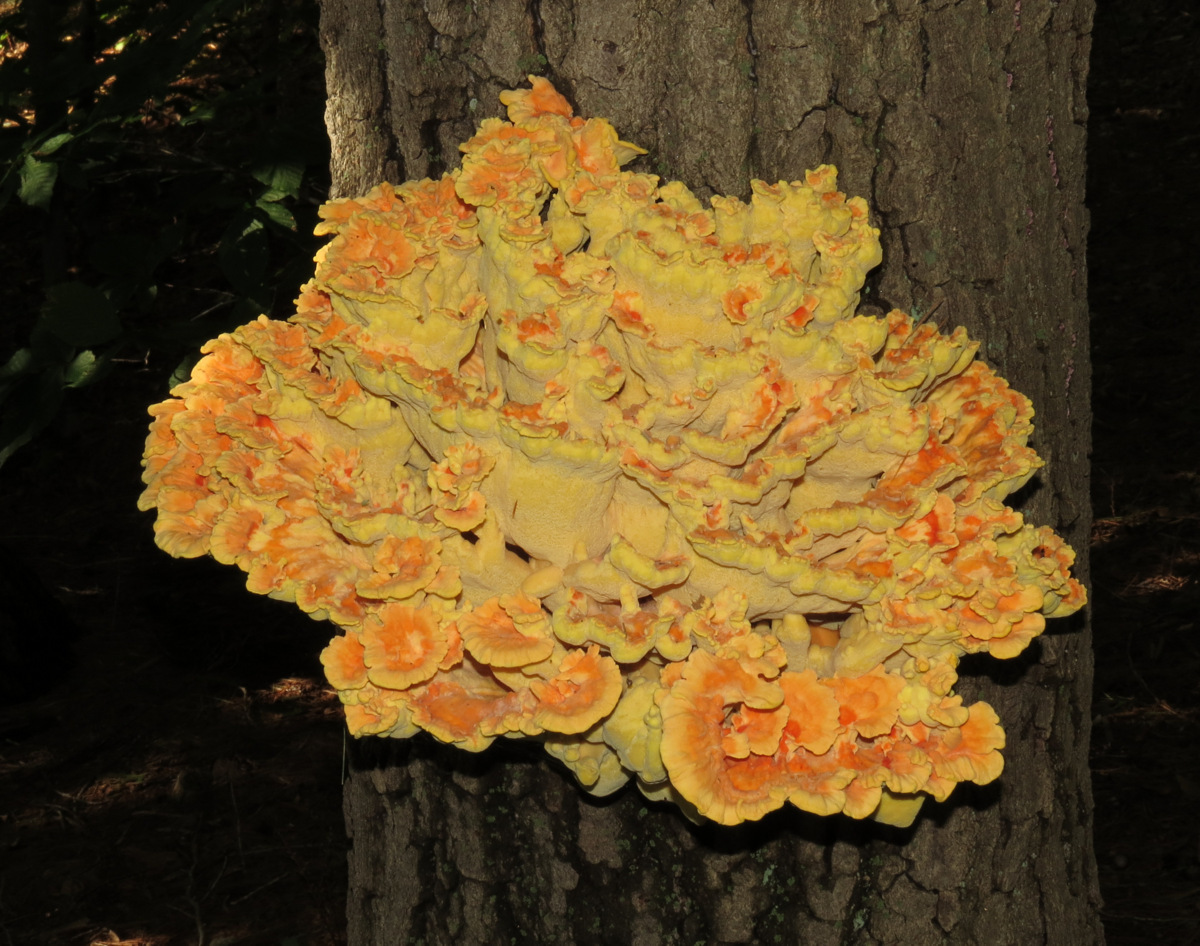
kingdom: Fungi
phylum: Basidiomycota
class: Agaricomycetes
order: Polyporales
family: Laetiporaceae
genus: Laetiporus
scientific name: Laetiporus sulphureus
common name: Chicken of the woods
